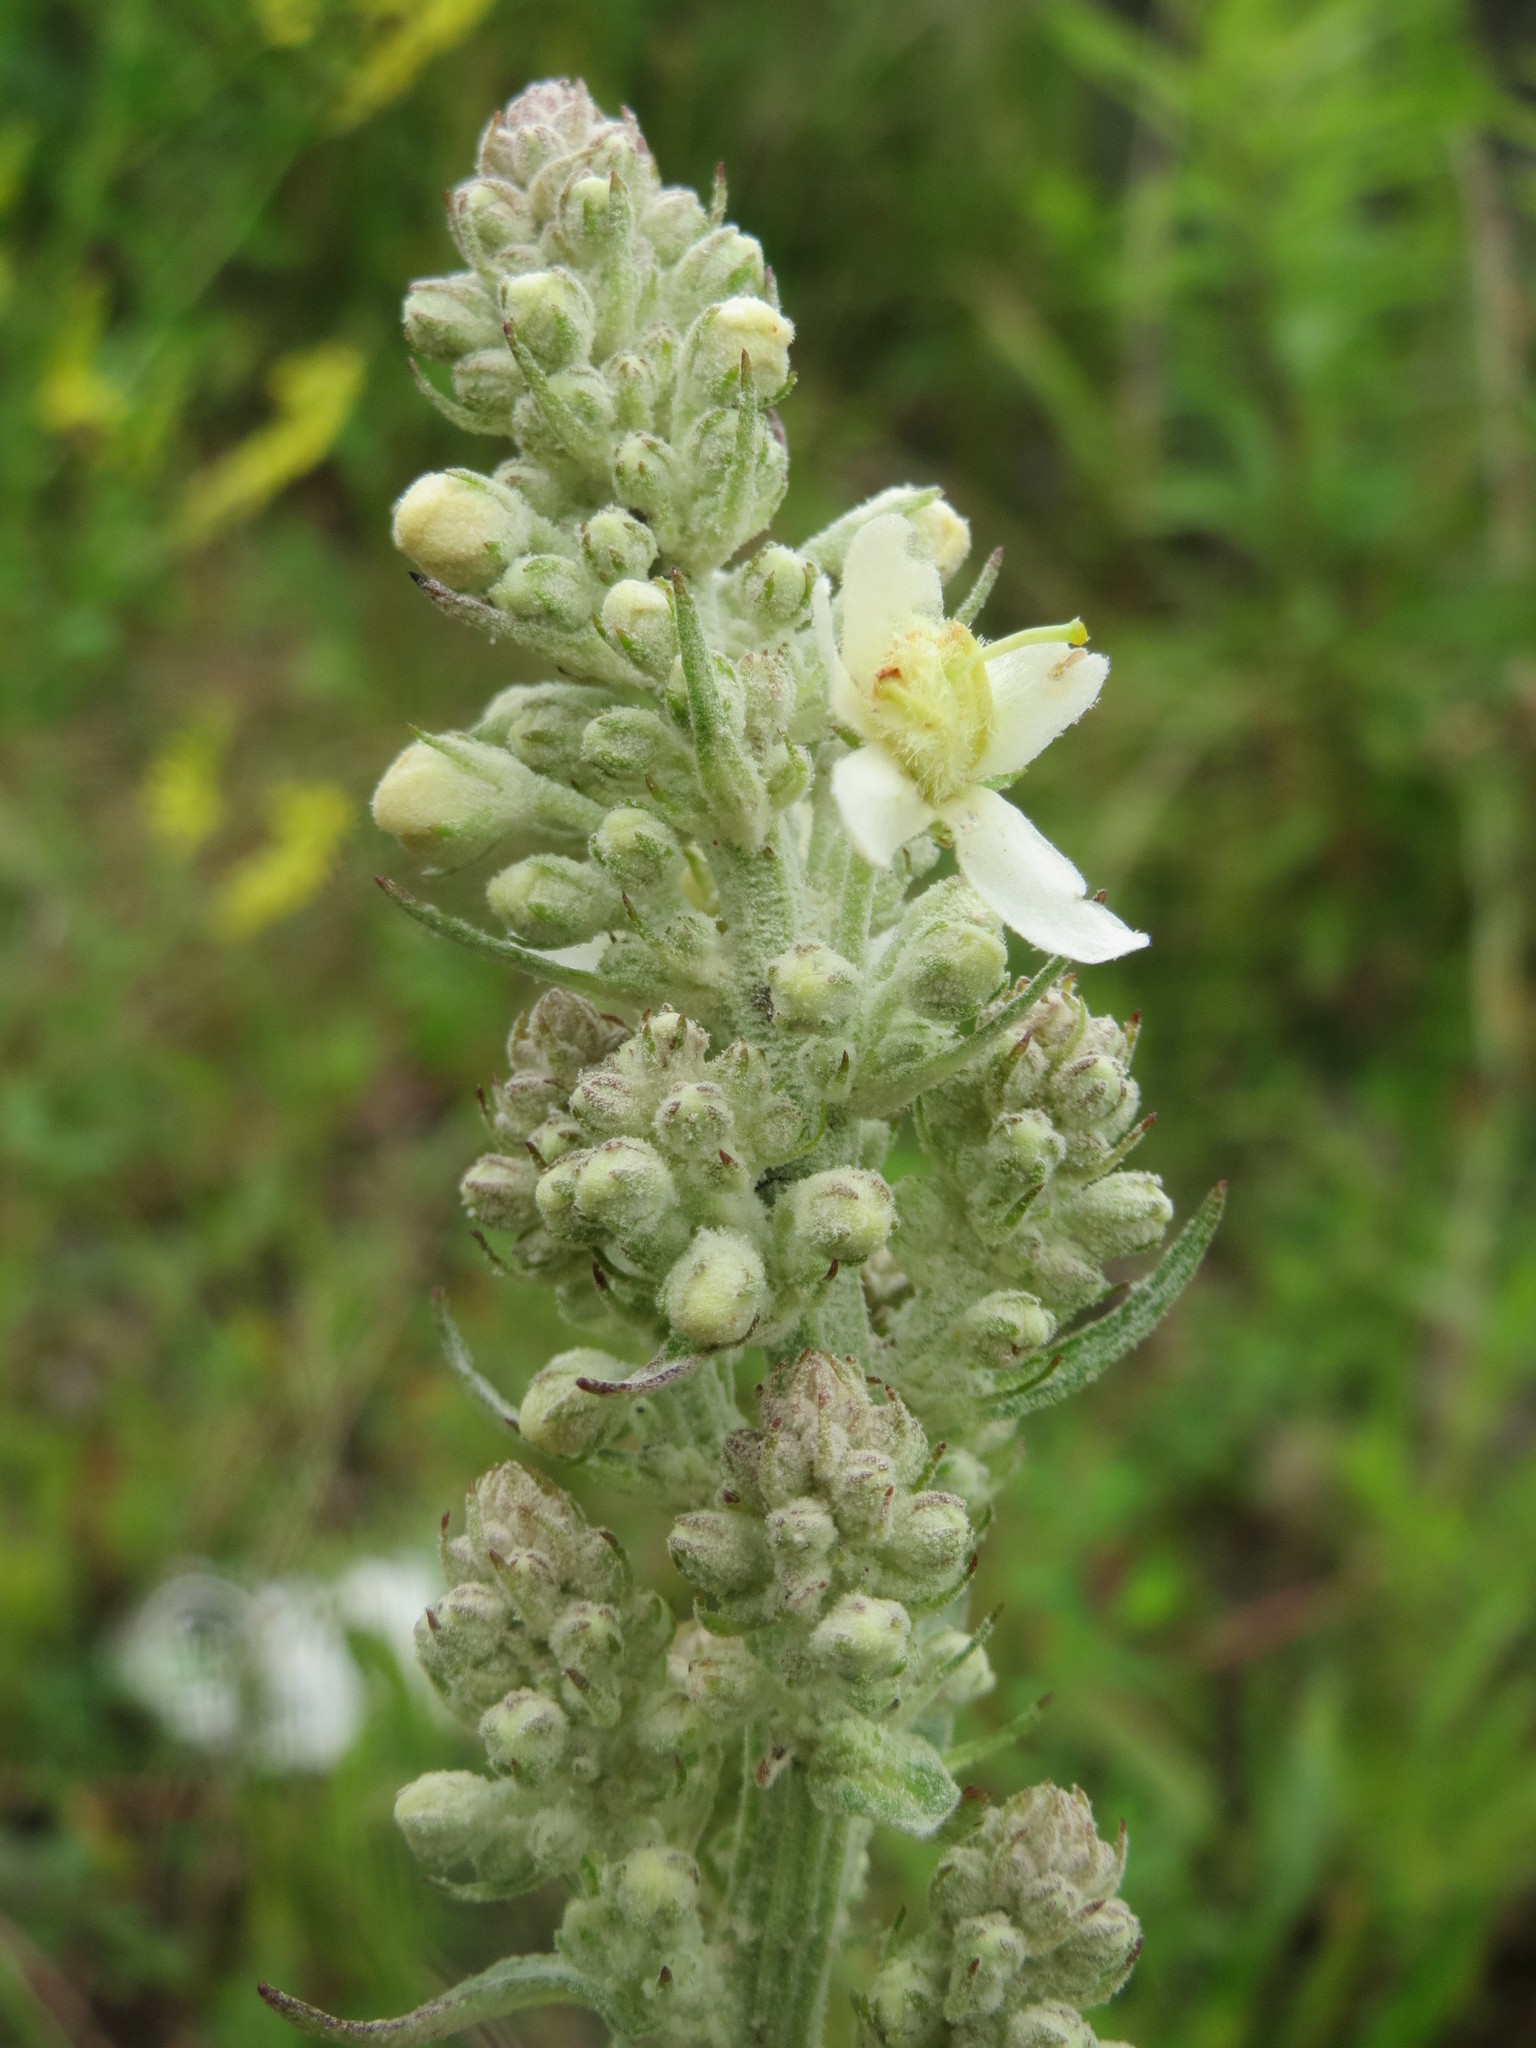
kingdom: Plantae
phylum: Tracheophyta
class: Magnoliopsida
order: Lamiales
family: Scrophulariaceae
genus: Verbascum
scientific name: Verbascum lychnitis
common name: White mullein
